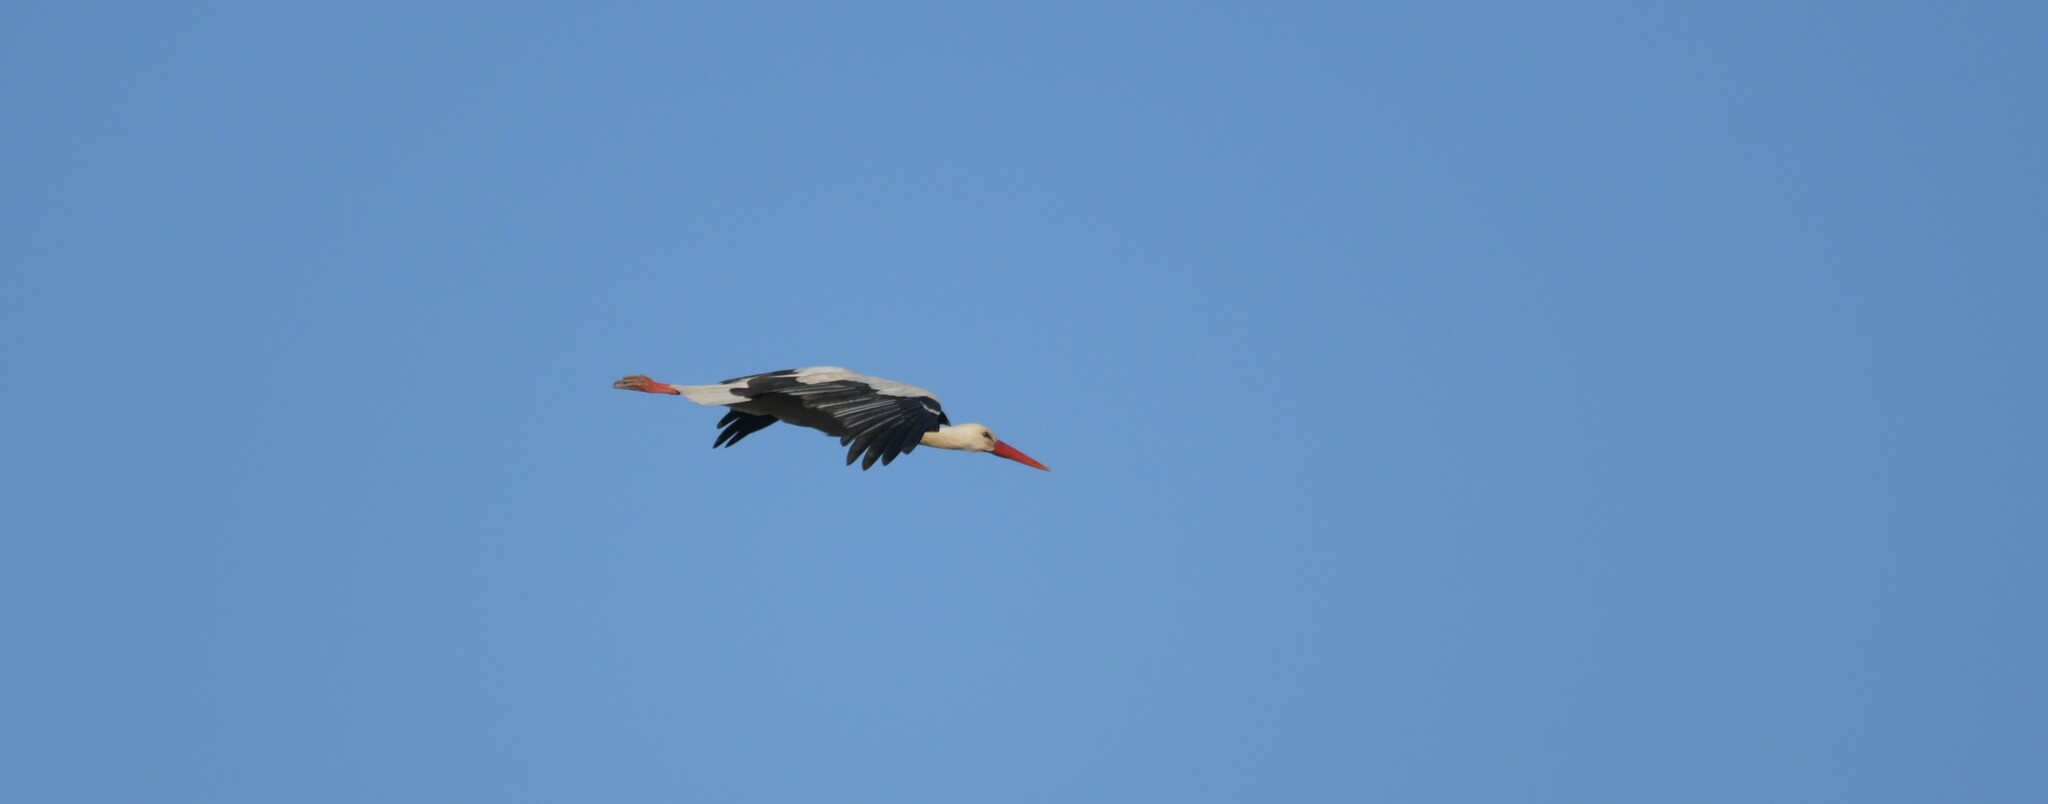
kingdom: Animalia
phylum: Chordata
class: Aves
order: Ciconiiformes
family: Ciconiidae
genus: Ciconia
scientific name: Ciconia ciconia
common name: White stork
